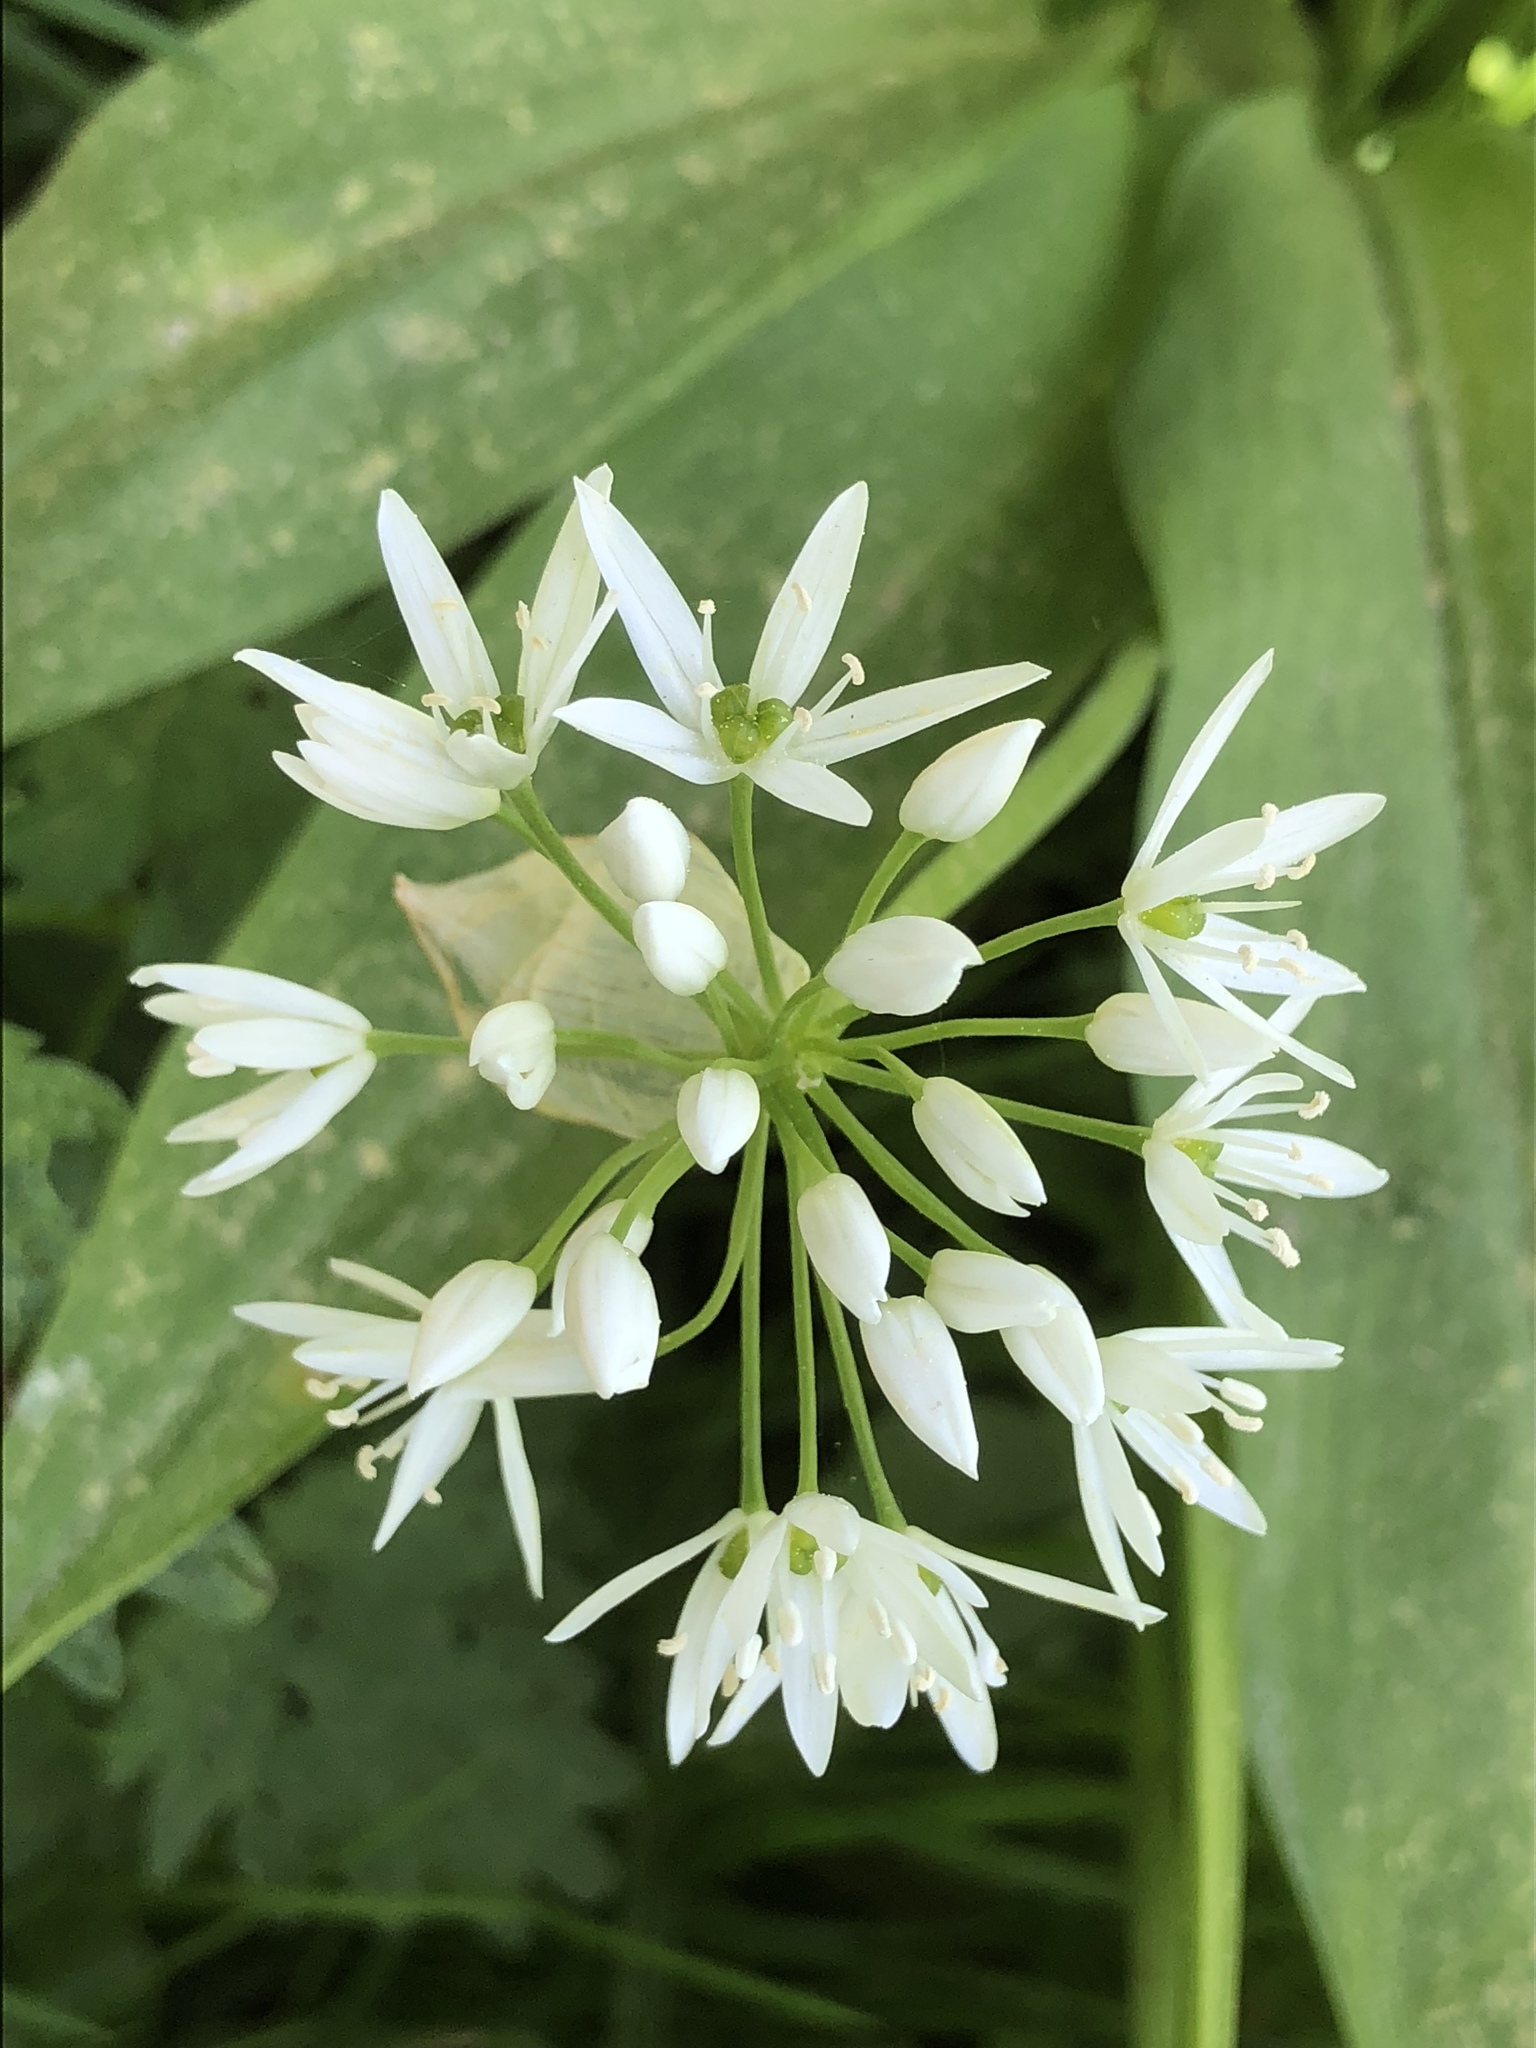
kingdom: Plantae
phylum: Tracheophyta
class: Liliopsida
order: Asparagales
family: Amaryllidaceae
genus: Allium
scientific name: Allium ursinum
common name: Ramsons
